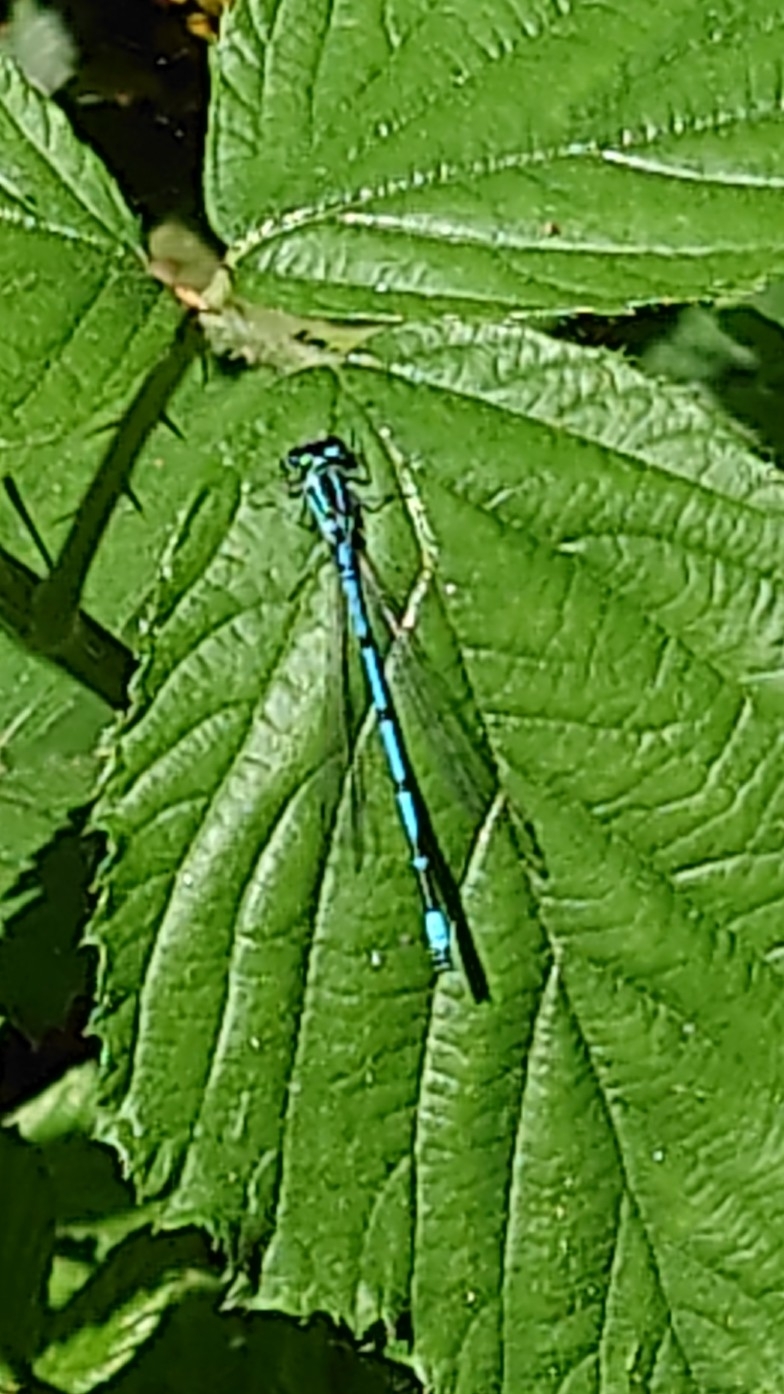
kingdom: Animalia
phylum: Arthropoda
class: Insecta
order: Odonata
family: Coenagrionidae
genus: Coenagrion
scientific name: Coenagrion puella
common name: Azure damselfly
